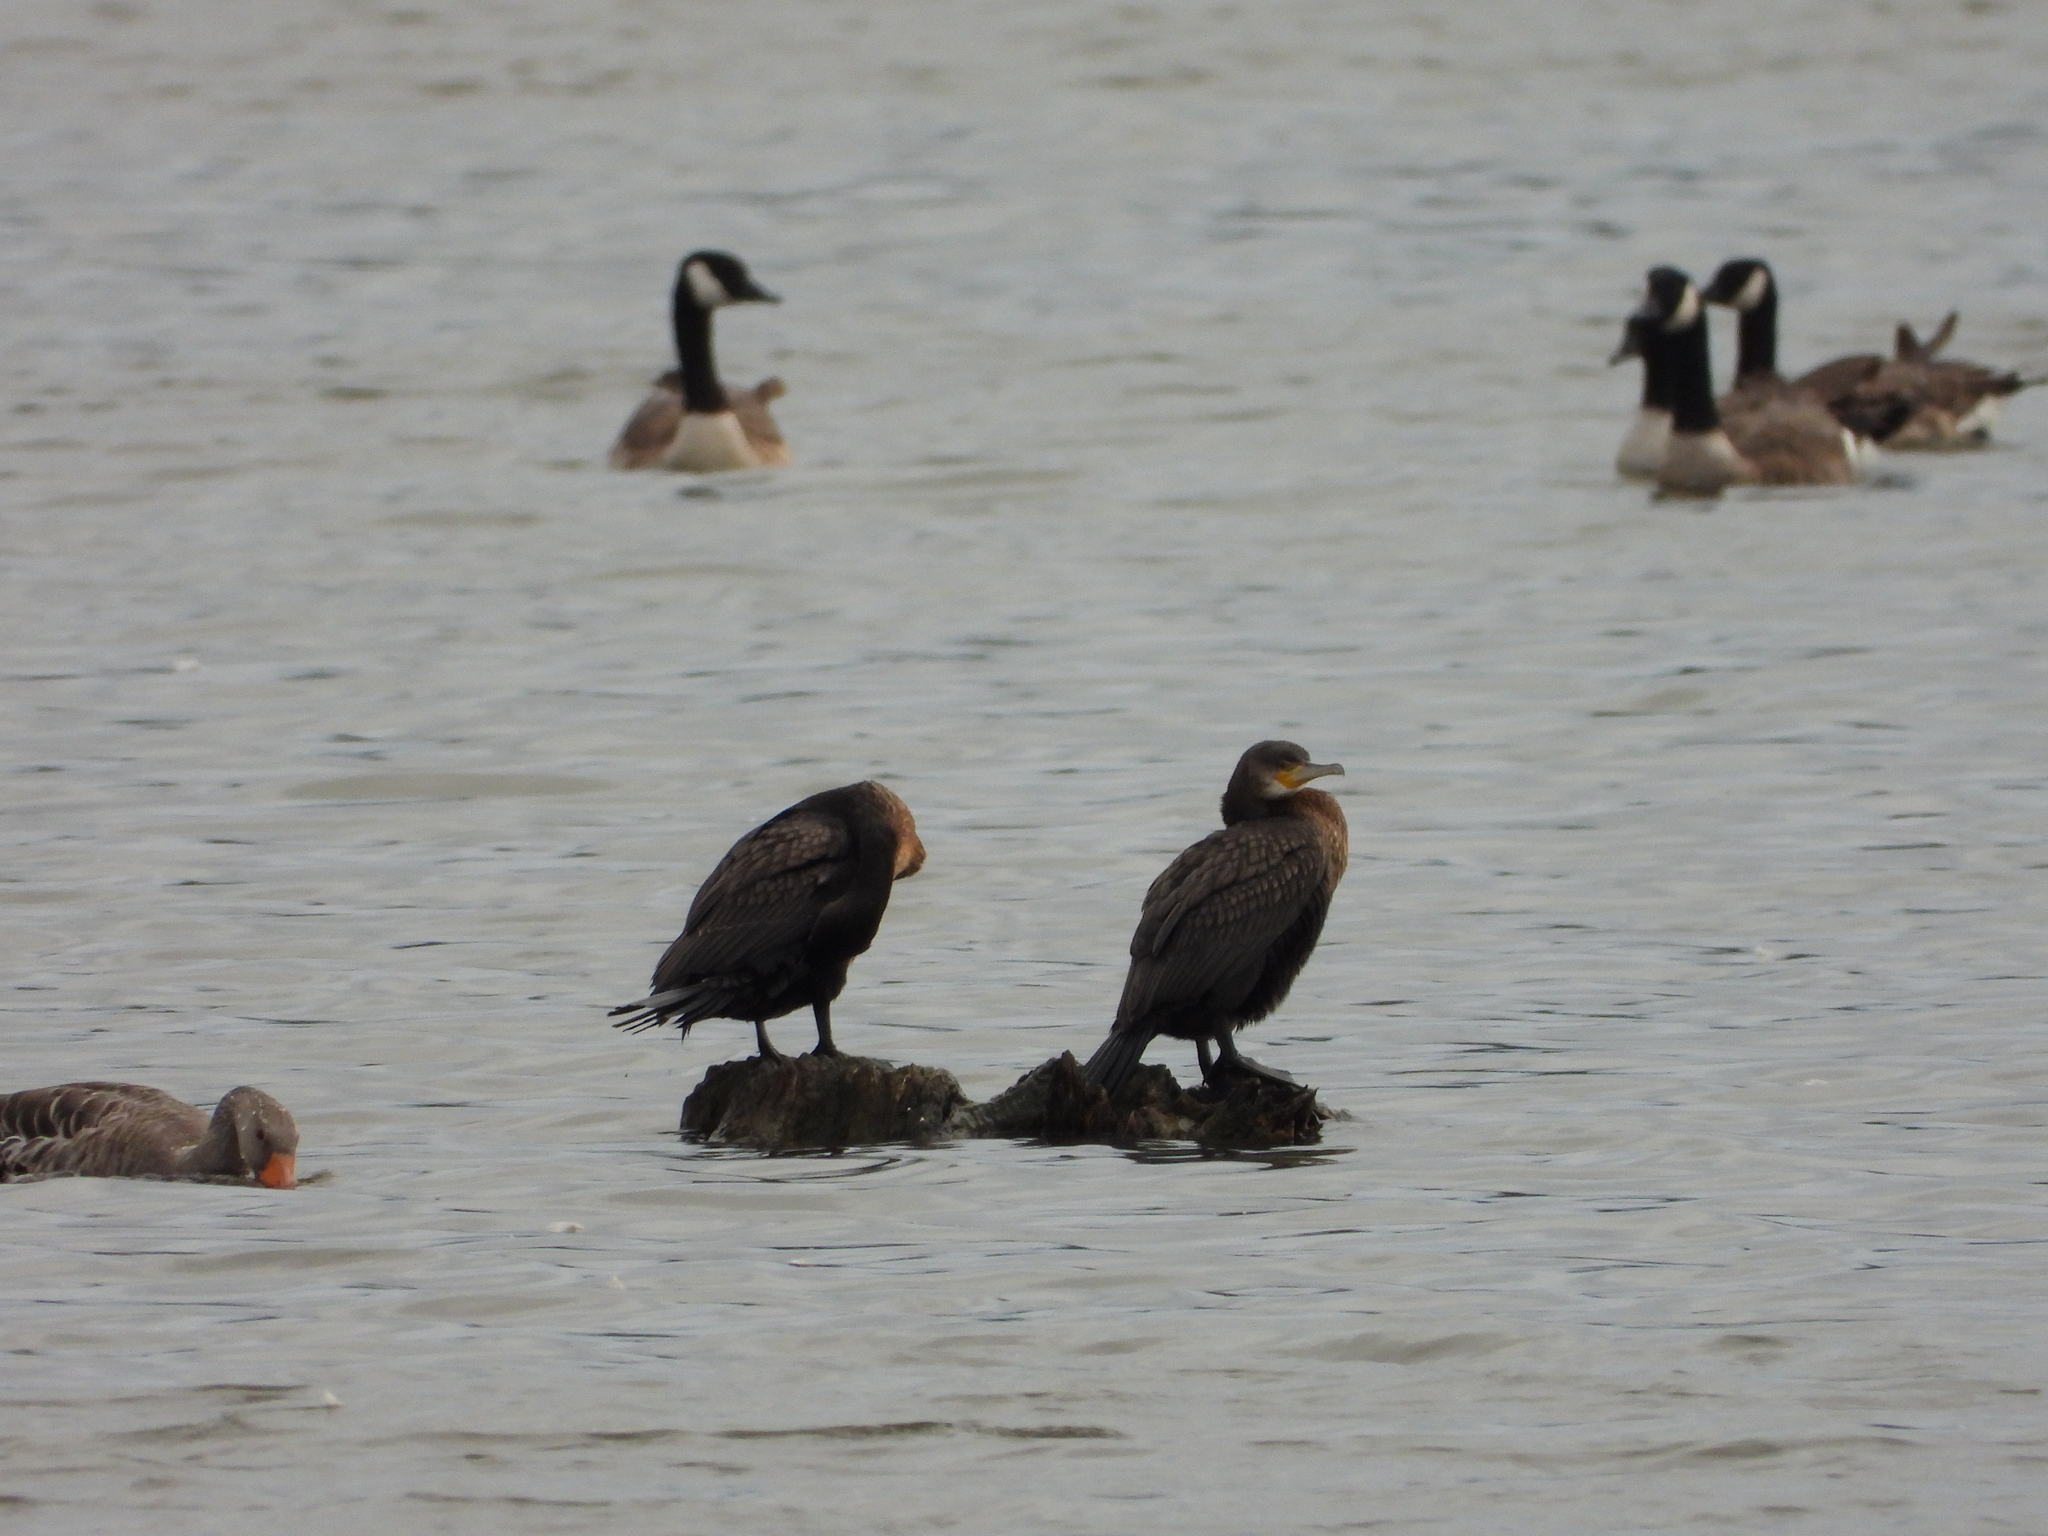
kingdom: Animalia
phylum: Chordata
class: Aves
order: Suliformes
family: Phalacrocoracidae
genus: Phalacrocorax
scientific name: Phalacrocorax carbo
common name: Great cormorant
